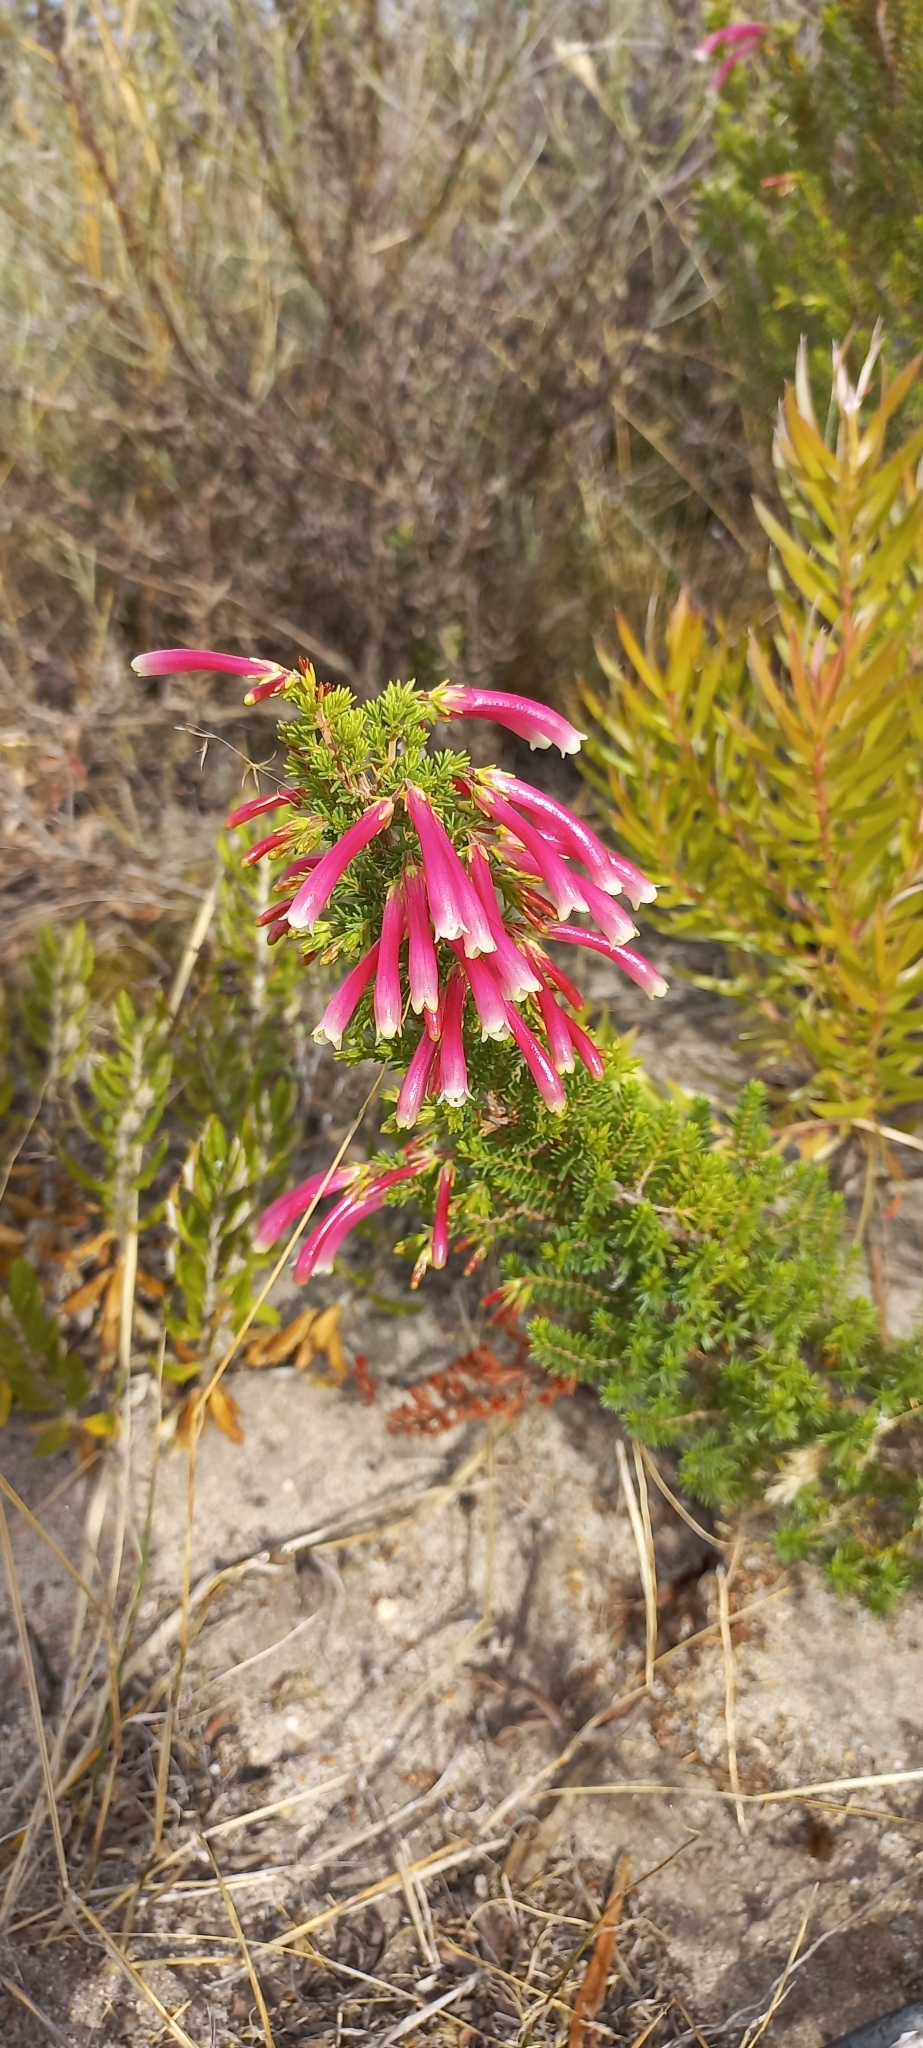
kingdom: Plantae
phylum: Tracheophyta
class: Magnoliopsida
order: Ericales
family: Ericaceae
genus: Erica
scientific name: Erica discolor
